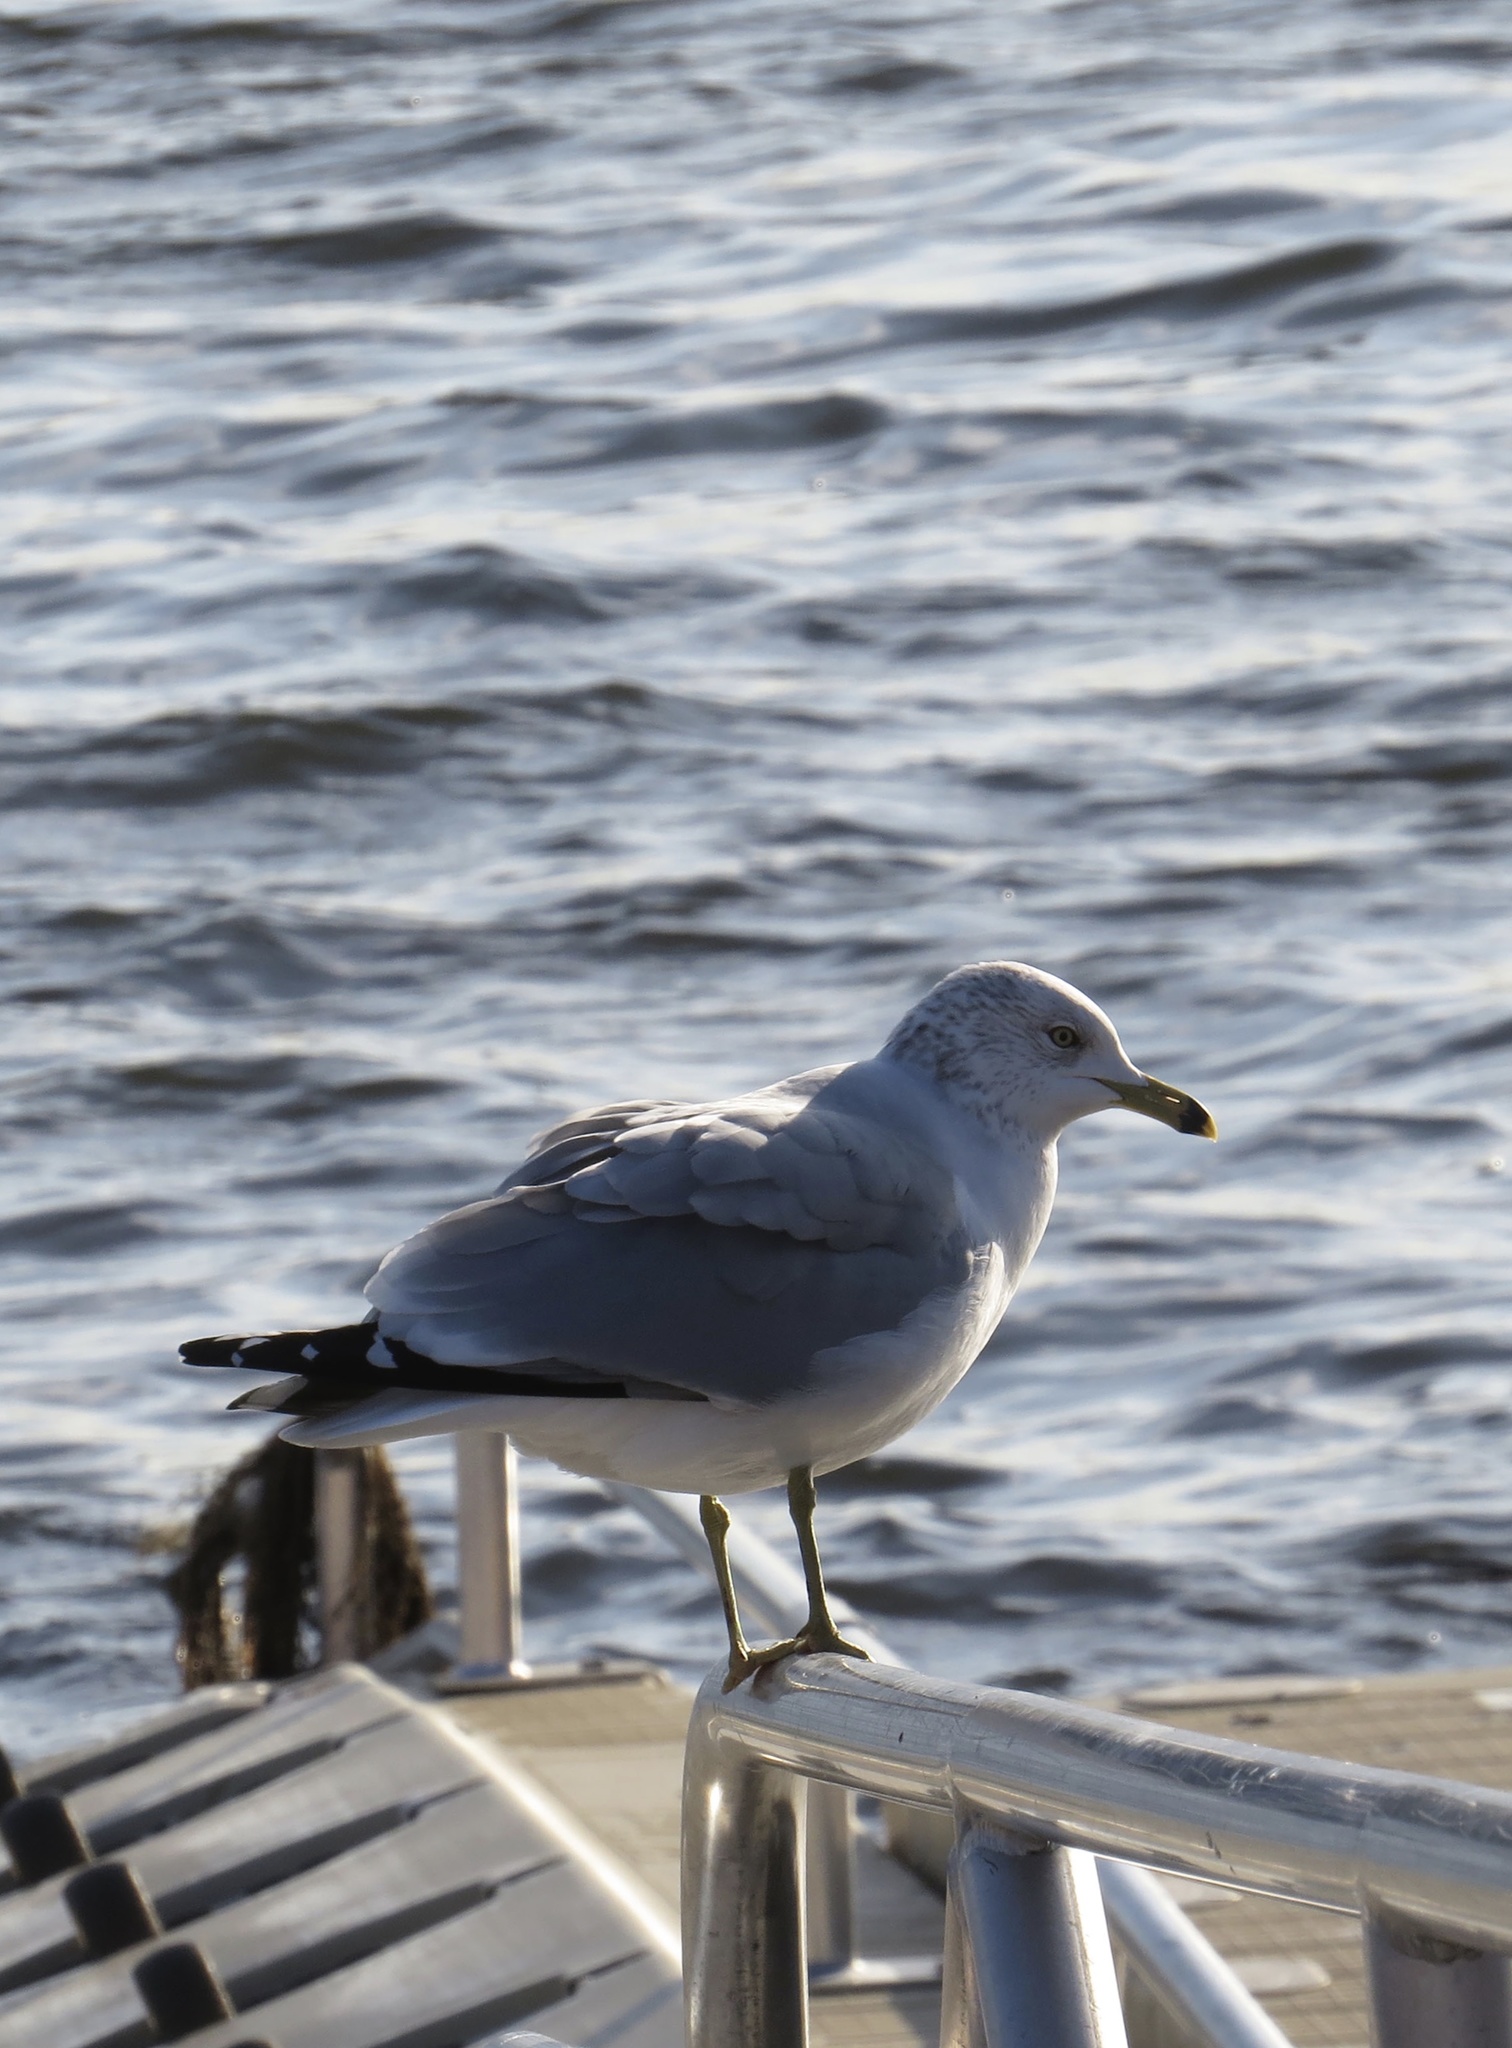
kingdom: Animalia
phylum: Chordata
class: Aves
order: Charadriiformes
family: Laridae
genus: Larus
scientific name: Larus delawarensis
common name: Ring-billed gull
